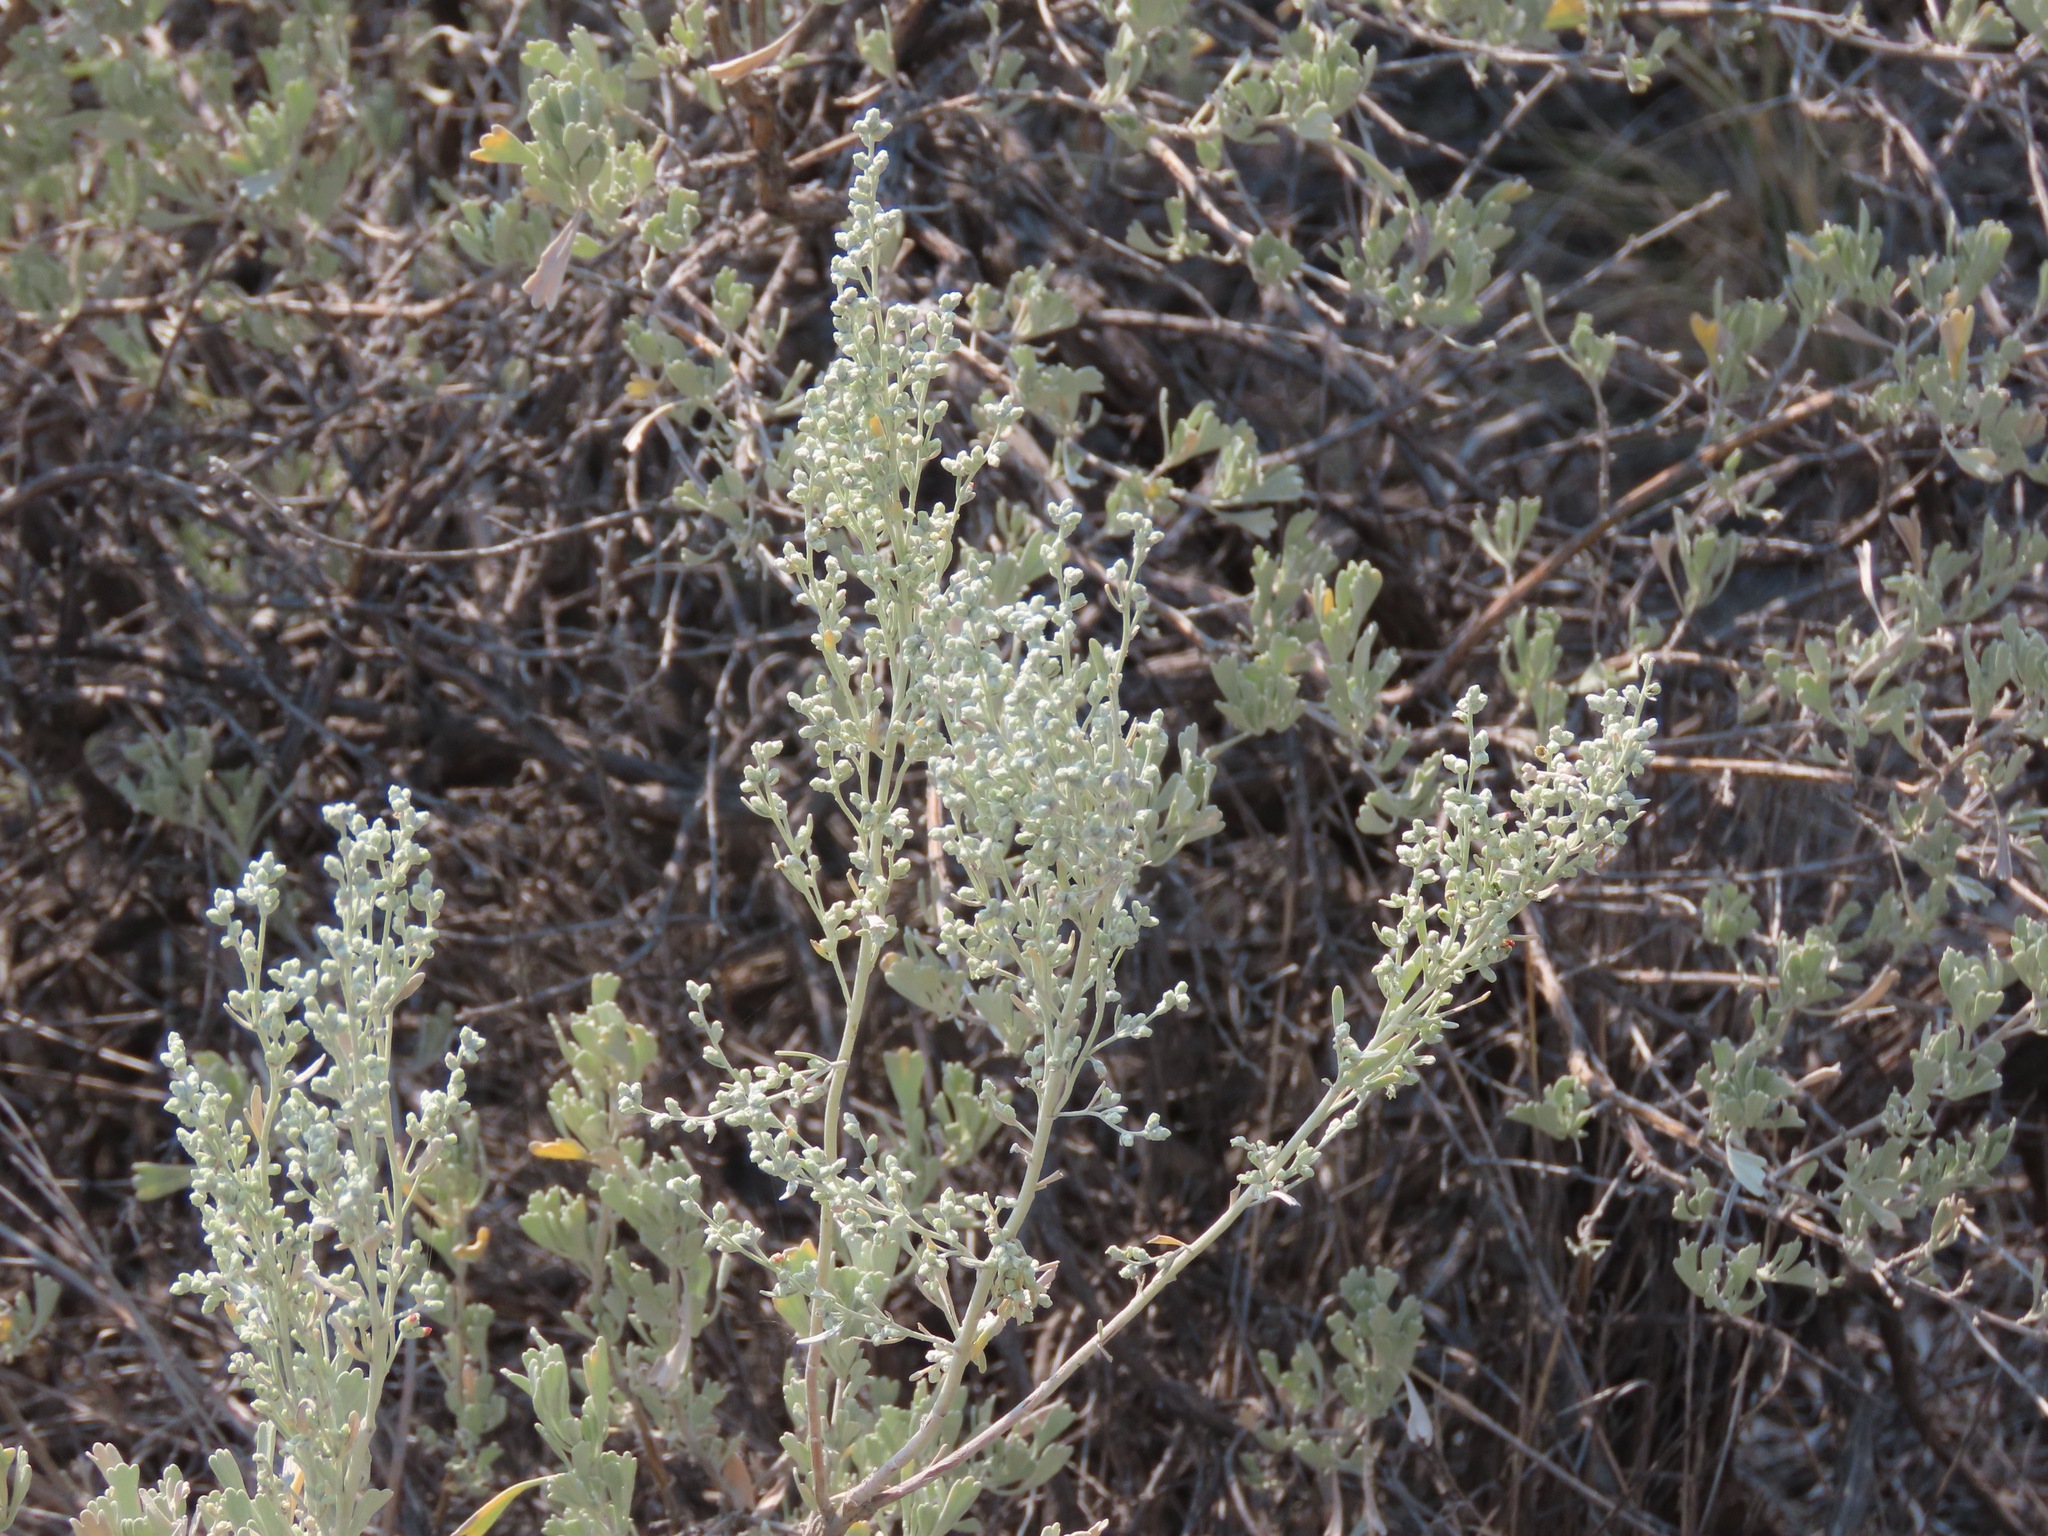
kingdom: Plantae
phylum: Tracheophyta
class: Magnoliopsida
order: Asterales
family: Asteraceae
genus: Artemisia
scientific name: Artemisia tridentata
